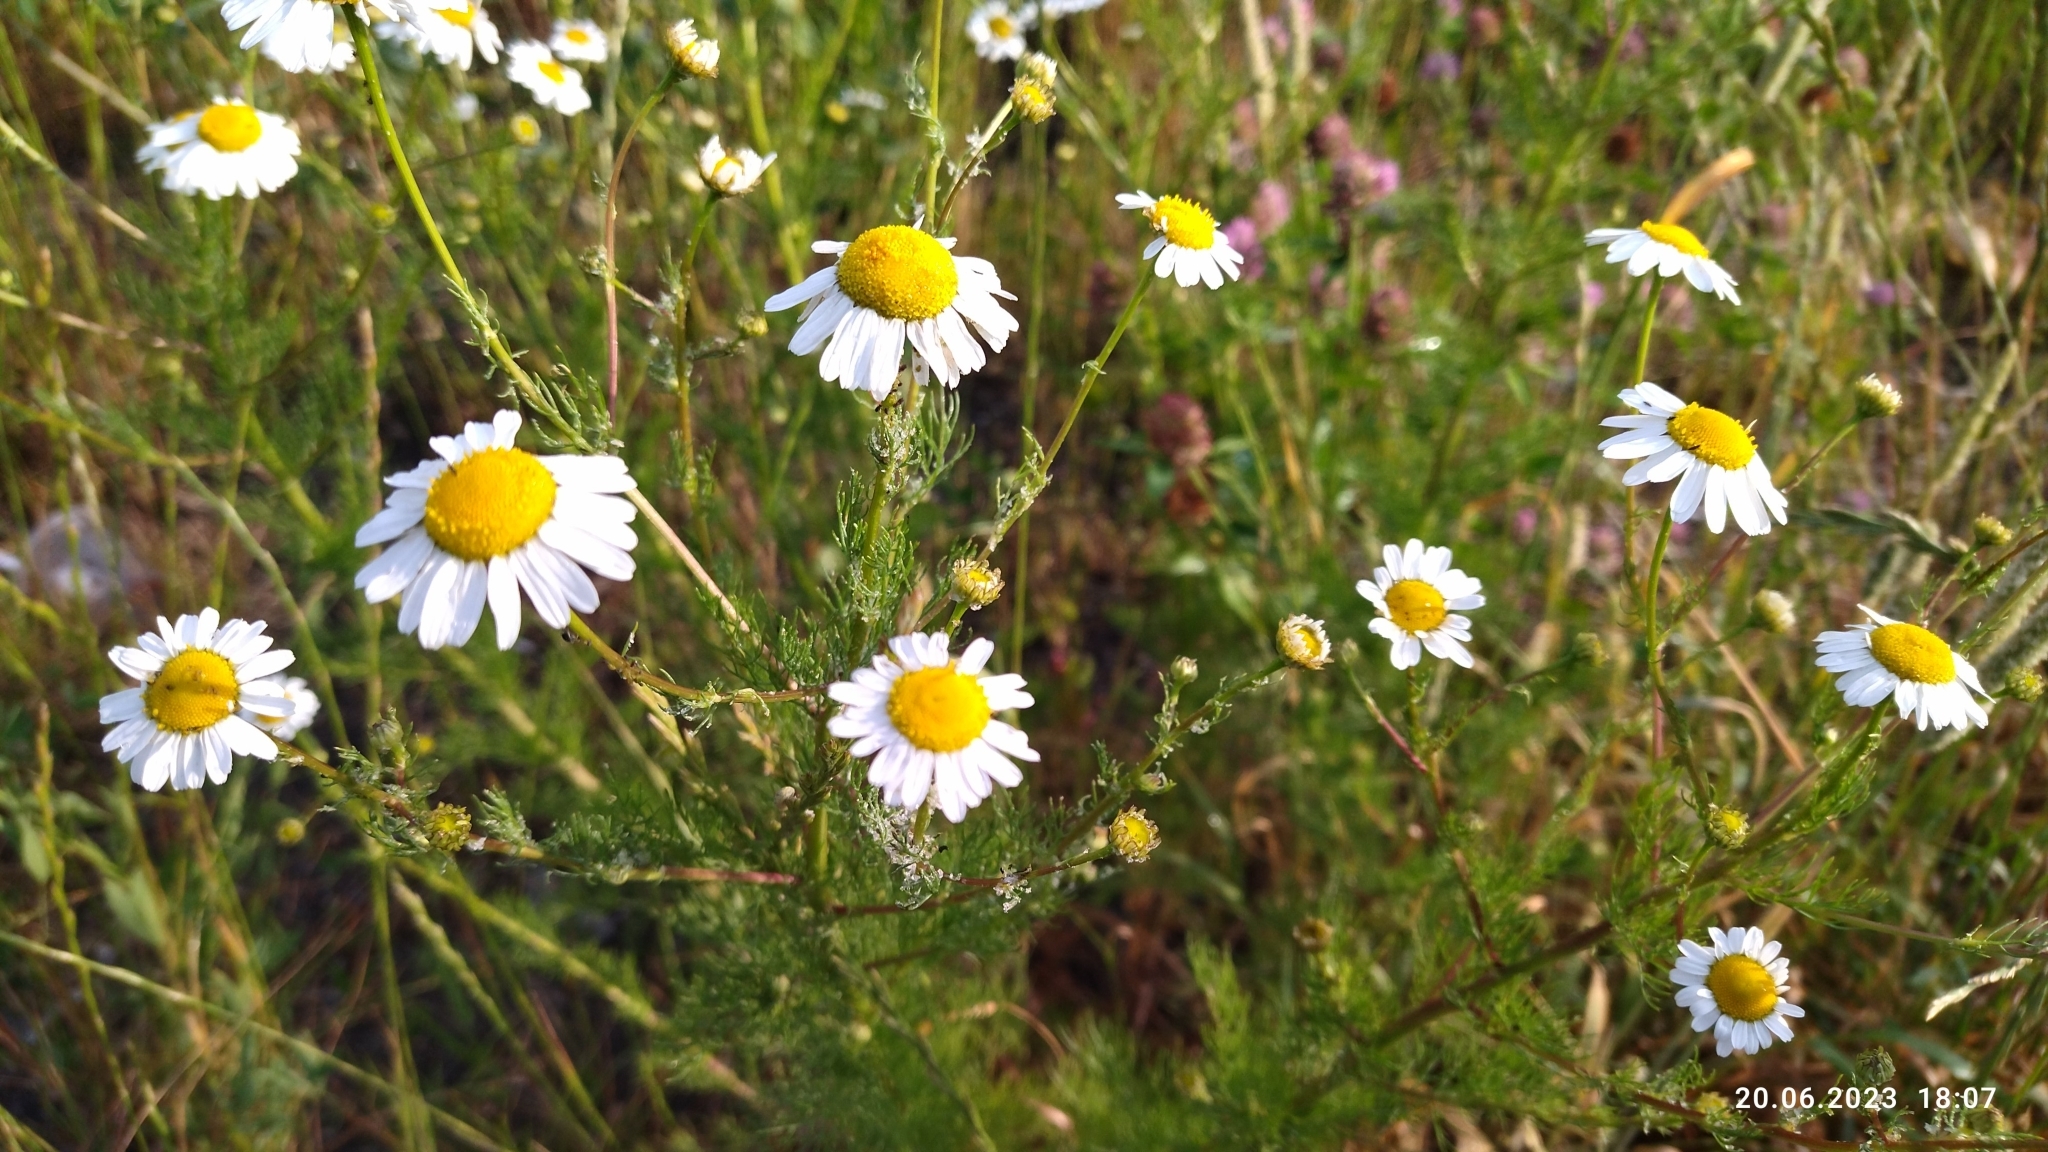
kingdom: Plantae
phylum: Tracheophyta
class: Magnoliopsida
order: Asterales
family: Asteraceae
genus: Tripleurospermum
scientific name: Tripleurospermum inodorum
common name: Scentless mayweed
